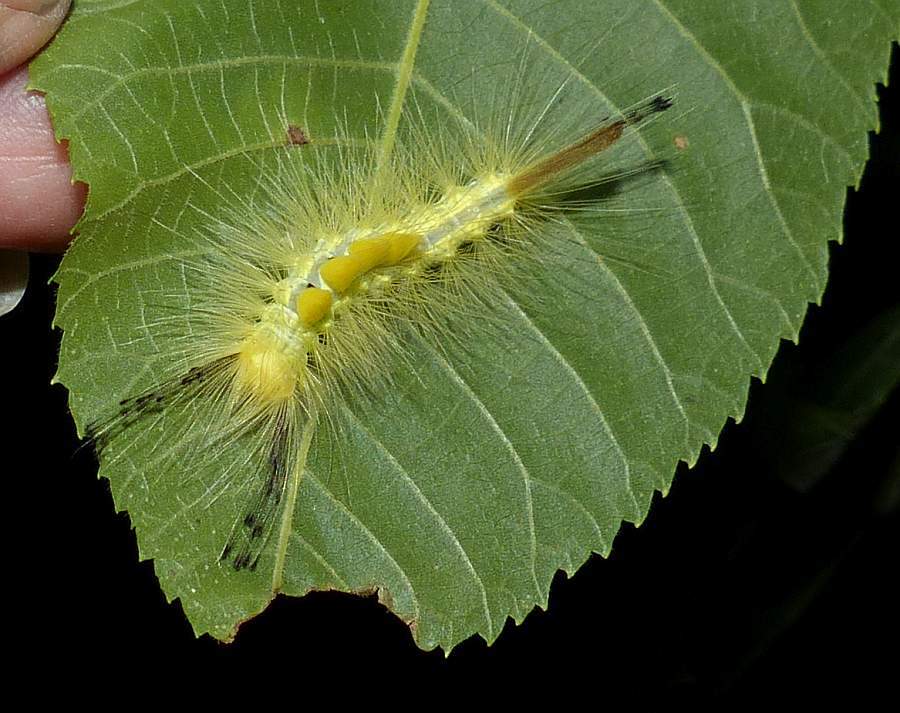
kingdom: Animalia
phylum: Arthropoda
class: Insecta
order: Lepidoptera
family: Erebidae
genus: Orgyia
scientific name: Orgyia definita
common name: Definite tussock moth
